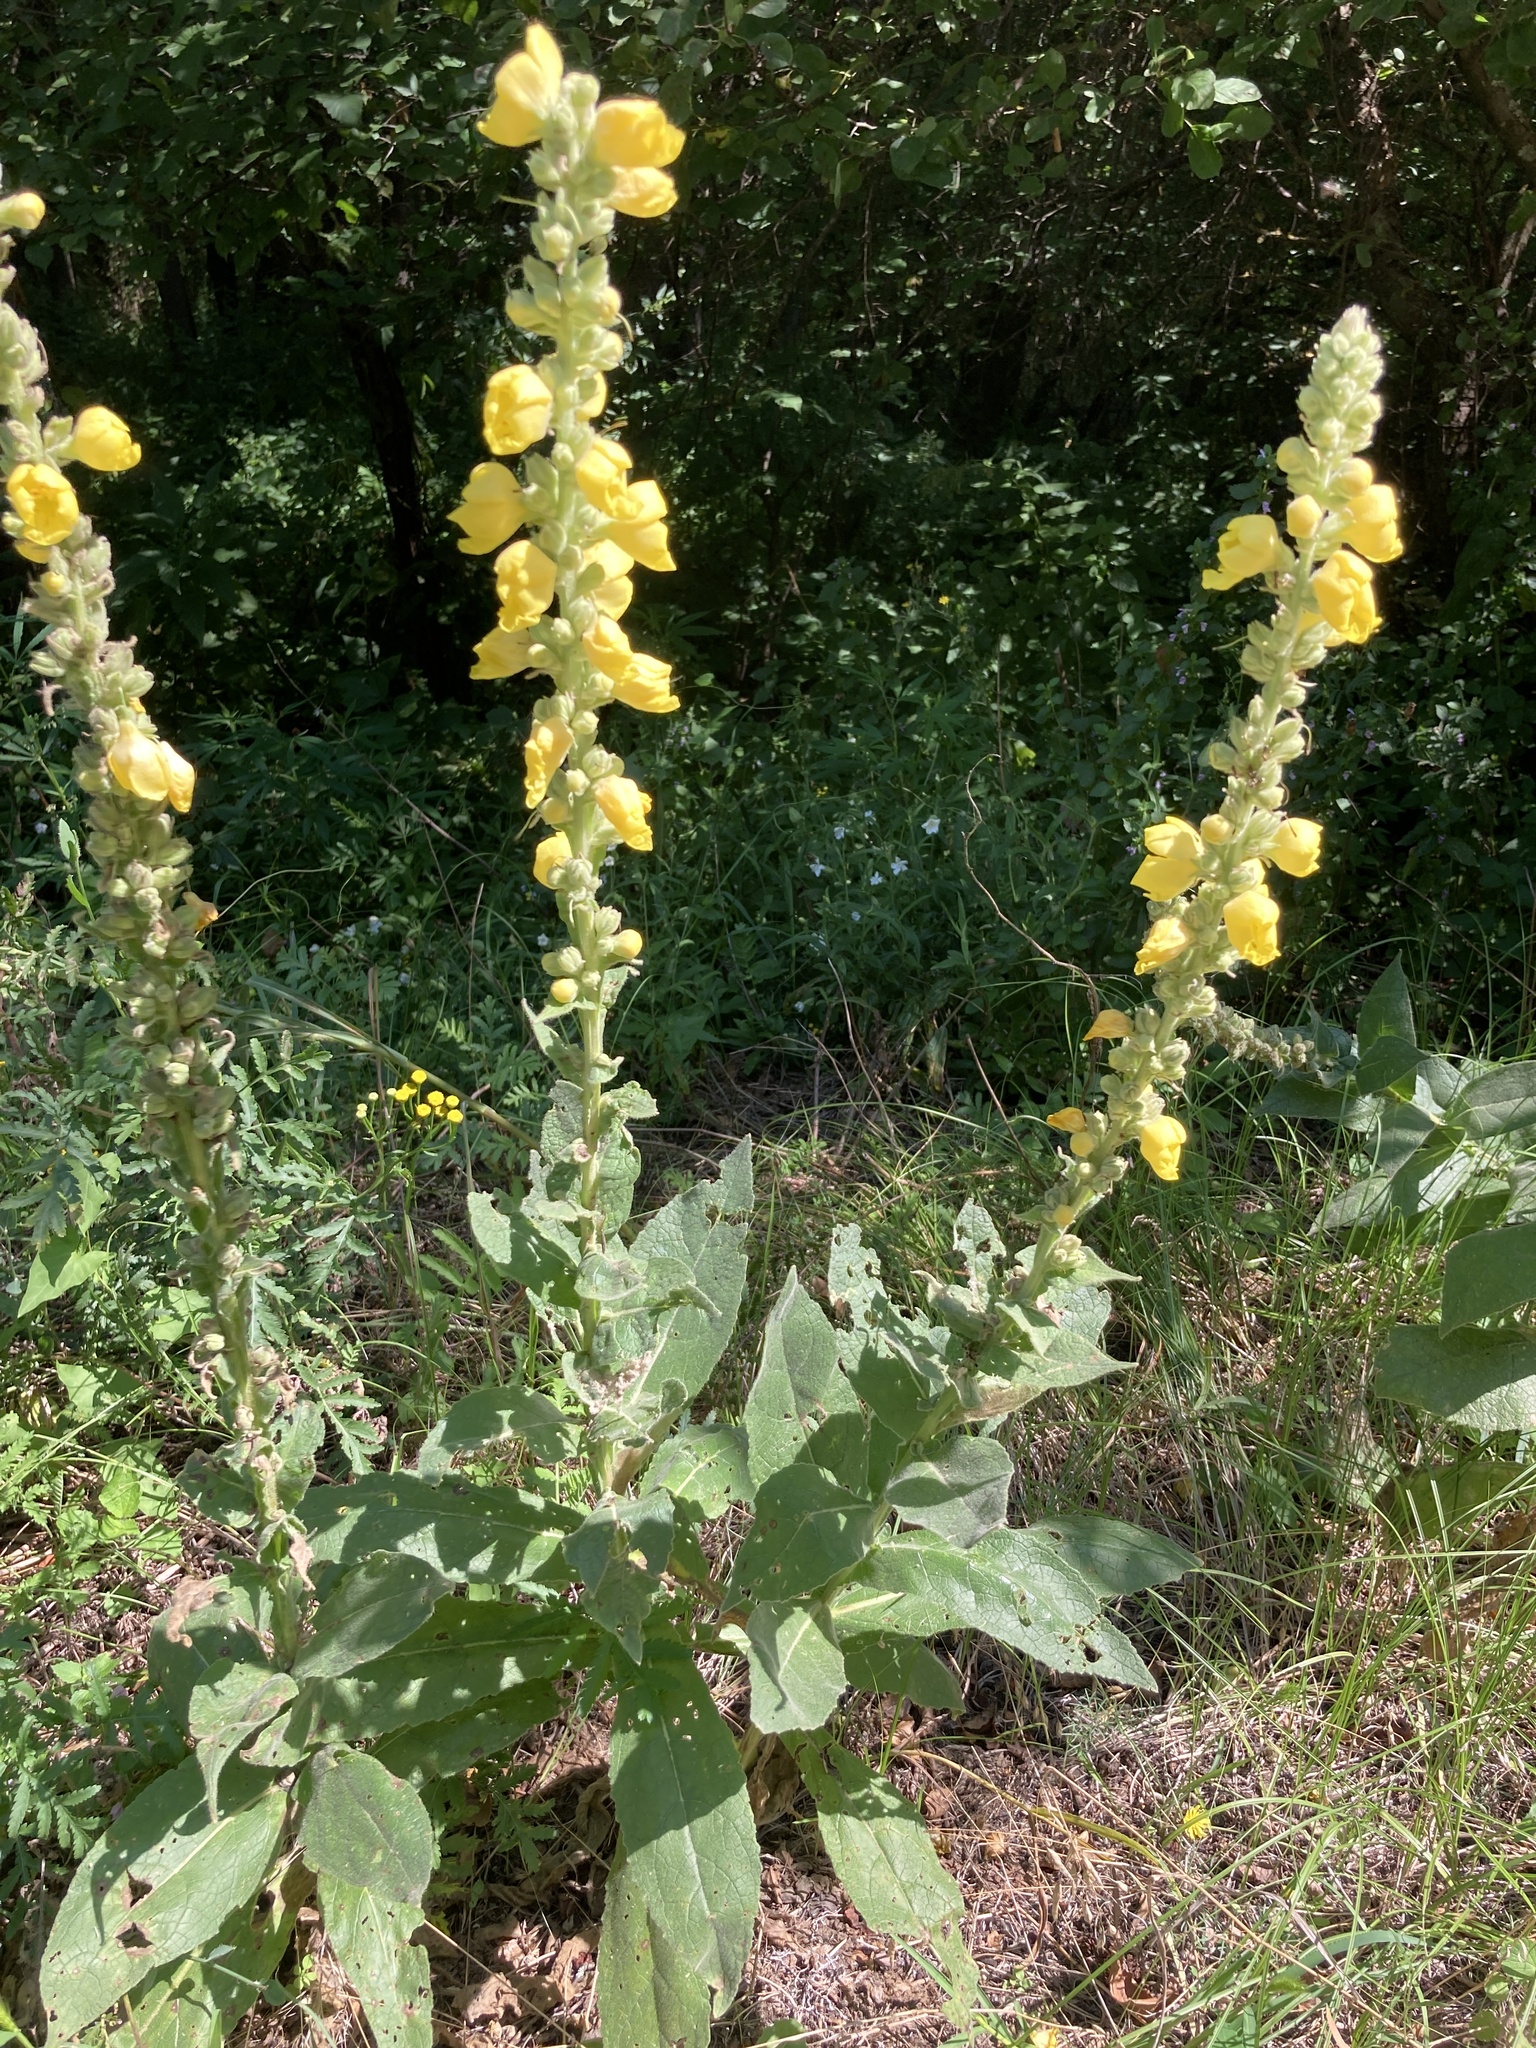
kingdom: Plantae
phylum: Tracheophyta
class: Magnoliopsida
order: Lamiales
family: Scrophulariaceae
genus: Verbascum
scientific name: Verbascum densiflorum
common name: Dense-flowered mullein
